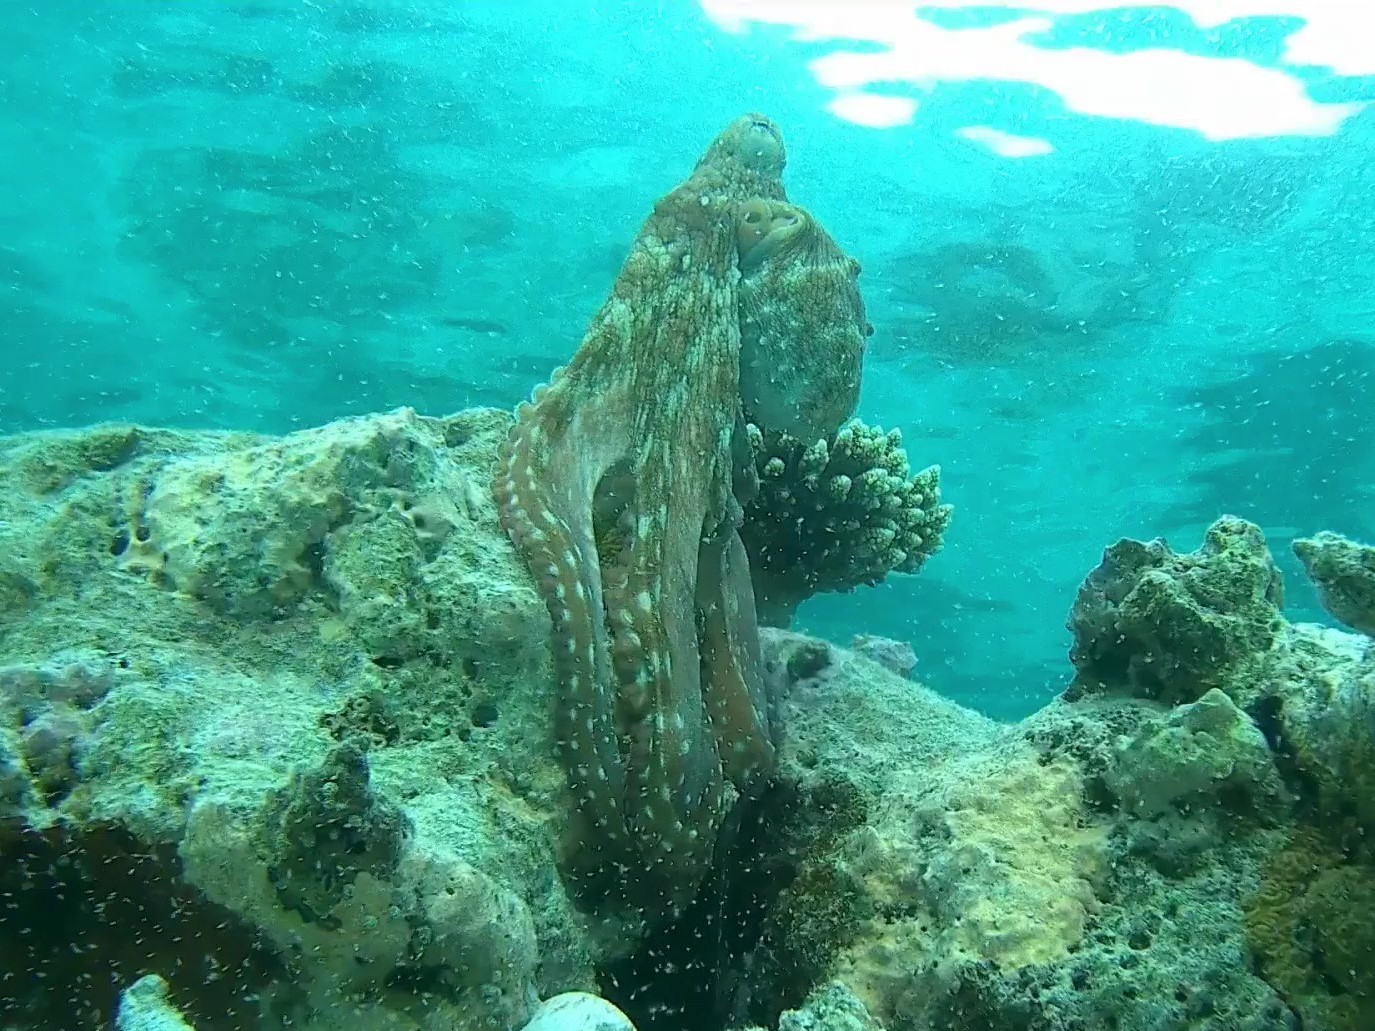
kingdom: Animalia
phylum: Mollusca
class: Cephalopoda
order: Octopoda
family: Octopodidae
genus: Octopus
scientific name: Octopus cyanea
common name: Cyane's octopus
